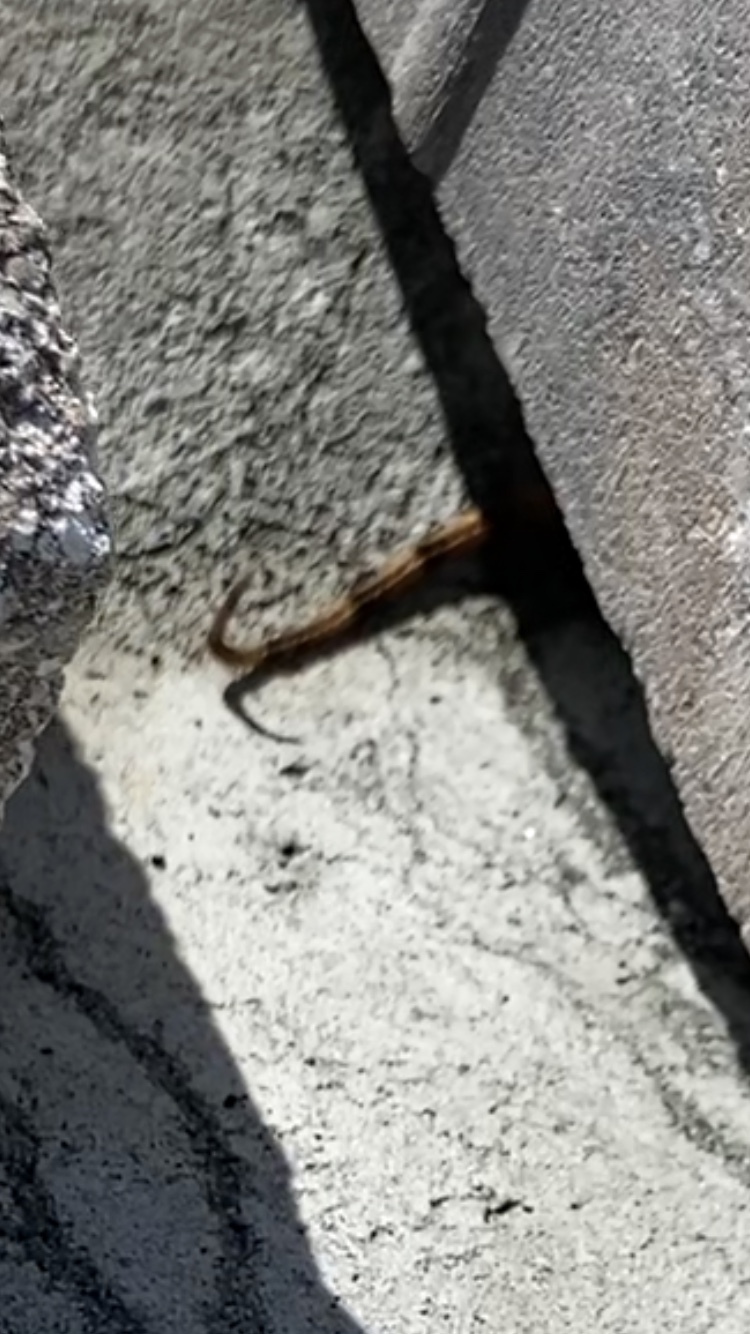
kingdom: Animalia
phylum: Chordata
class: Squamata
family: Leiocephalidae
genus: Leiocephalus
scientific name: Leiocephalus carinatus
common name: Northern curly-tailed lizard
